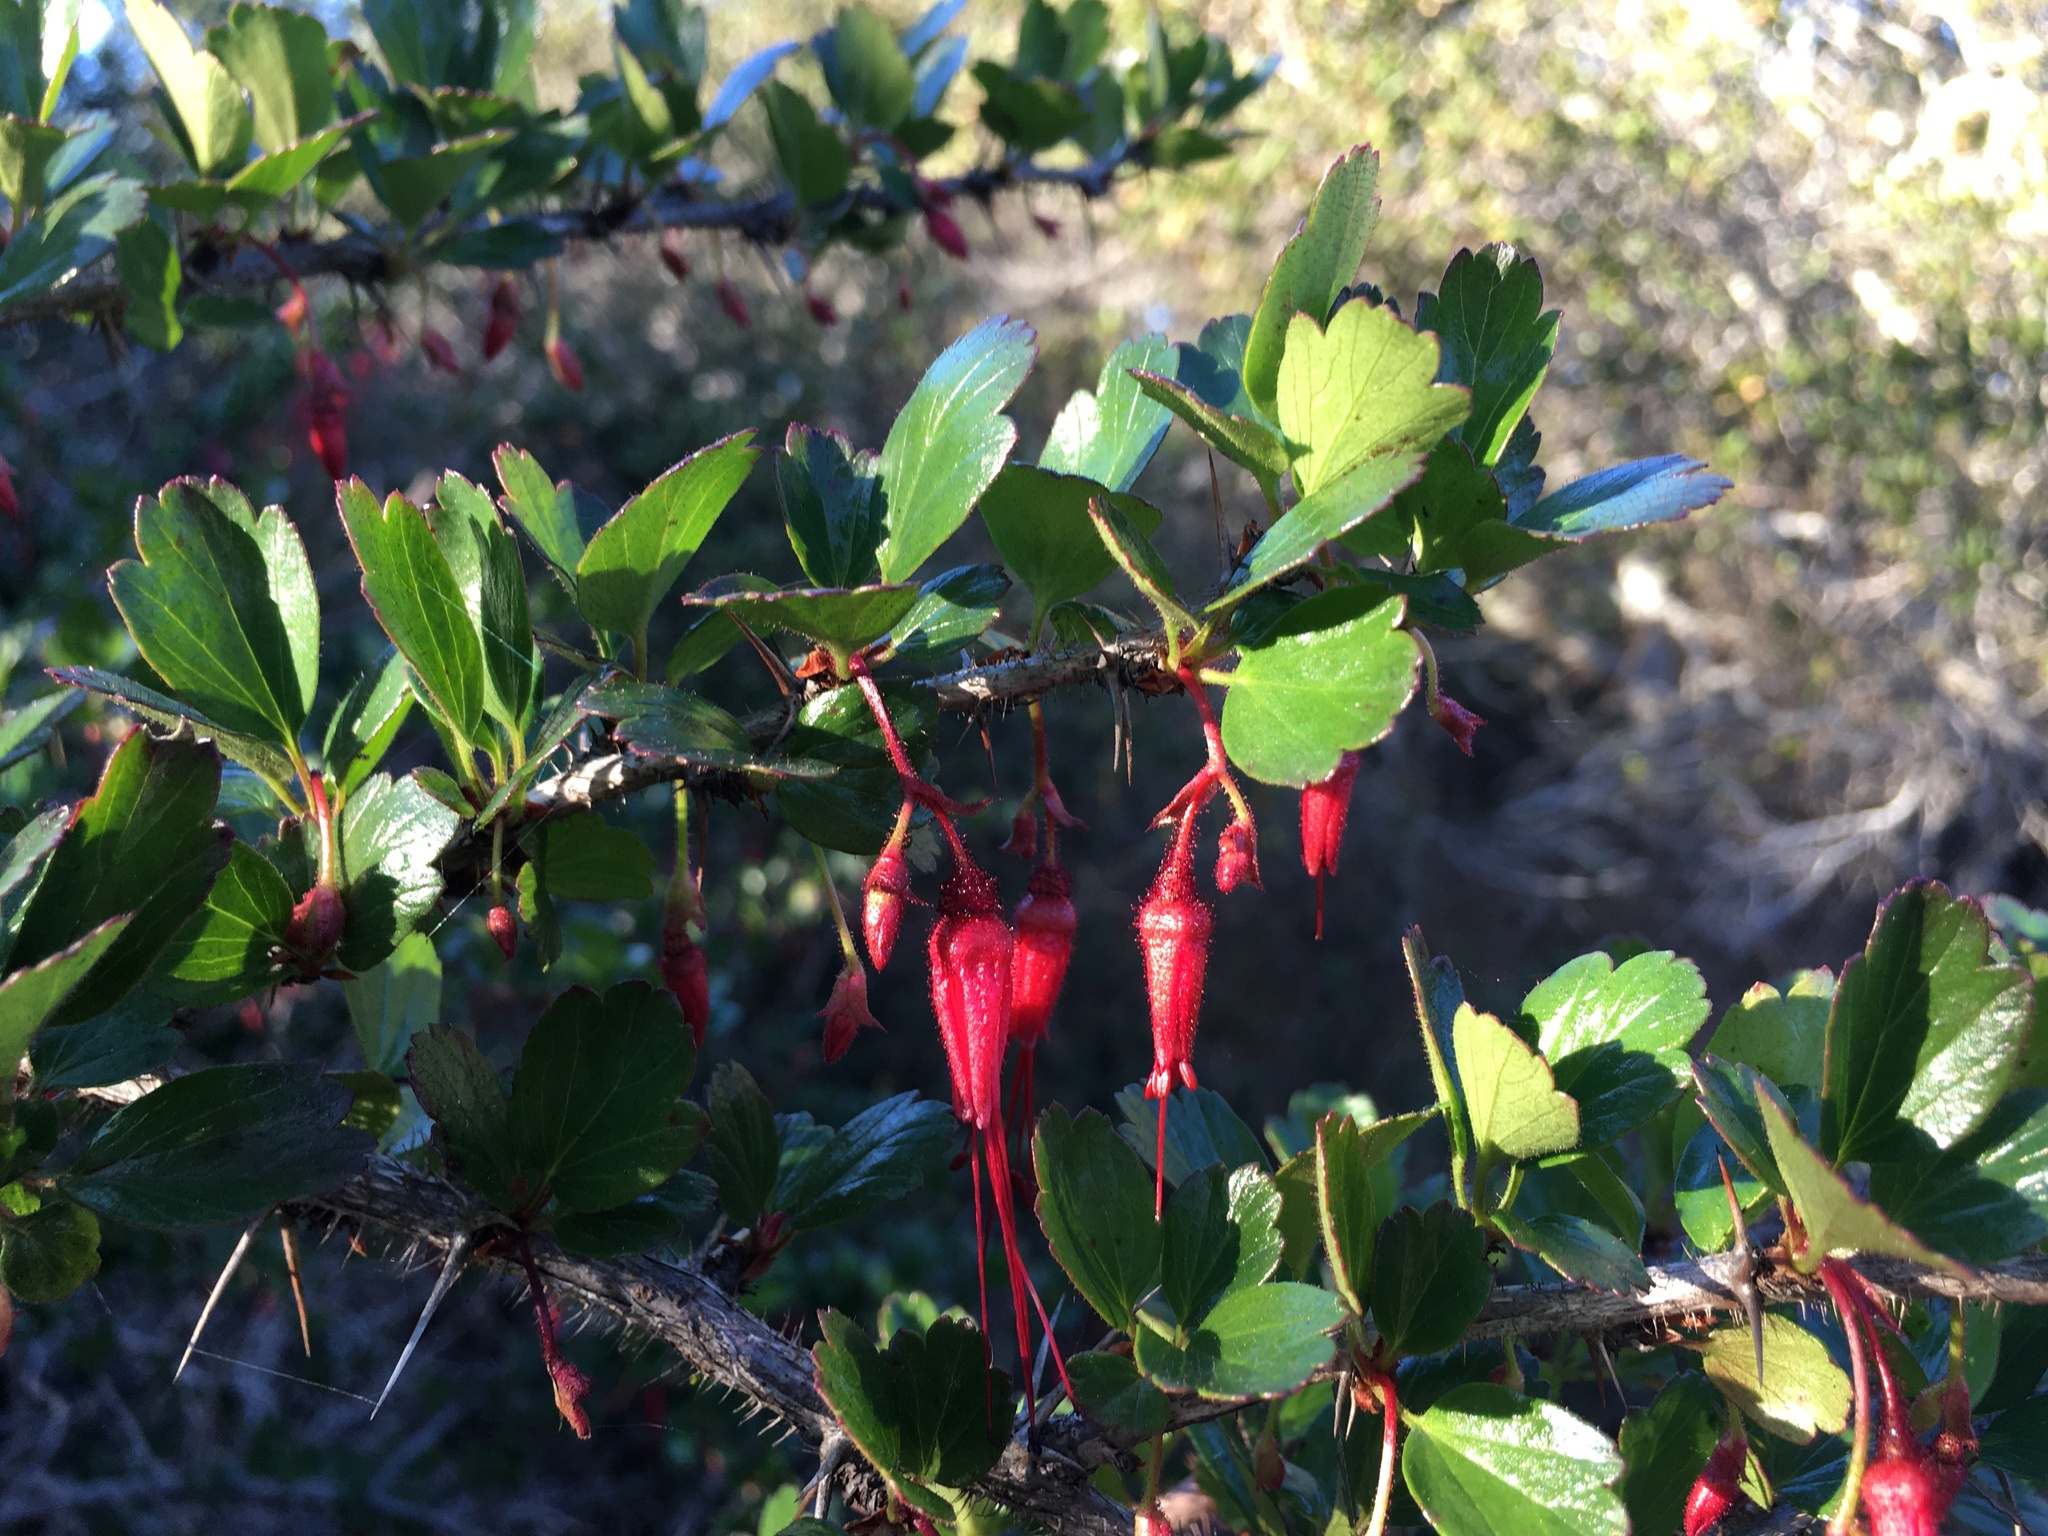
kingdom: Plantae
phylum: Tracheophyta
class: Magnoliopsida
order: Saxifragales
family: Grossulariaceae
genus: Ribes
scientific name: Ribes speciosum
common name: Fuchsia-flower gooseberry
